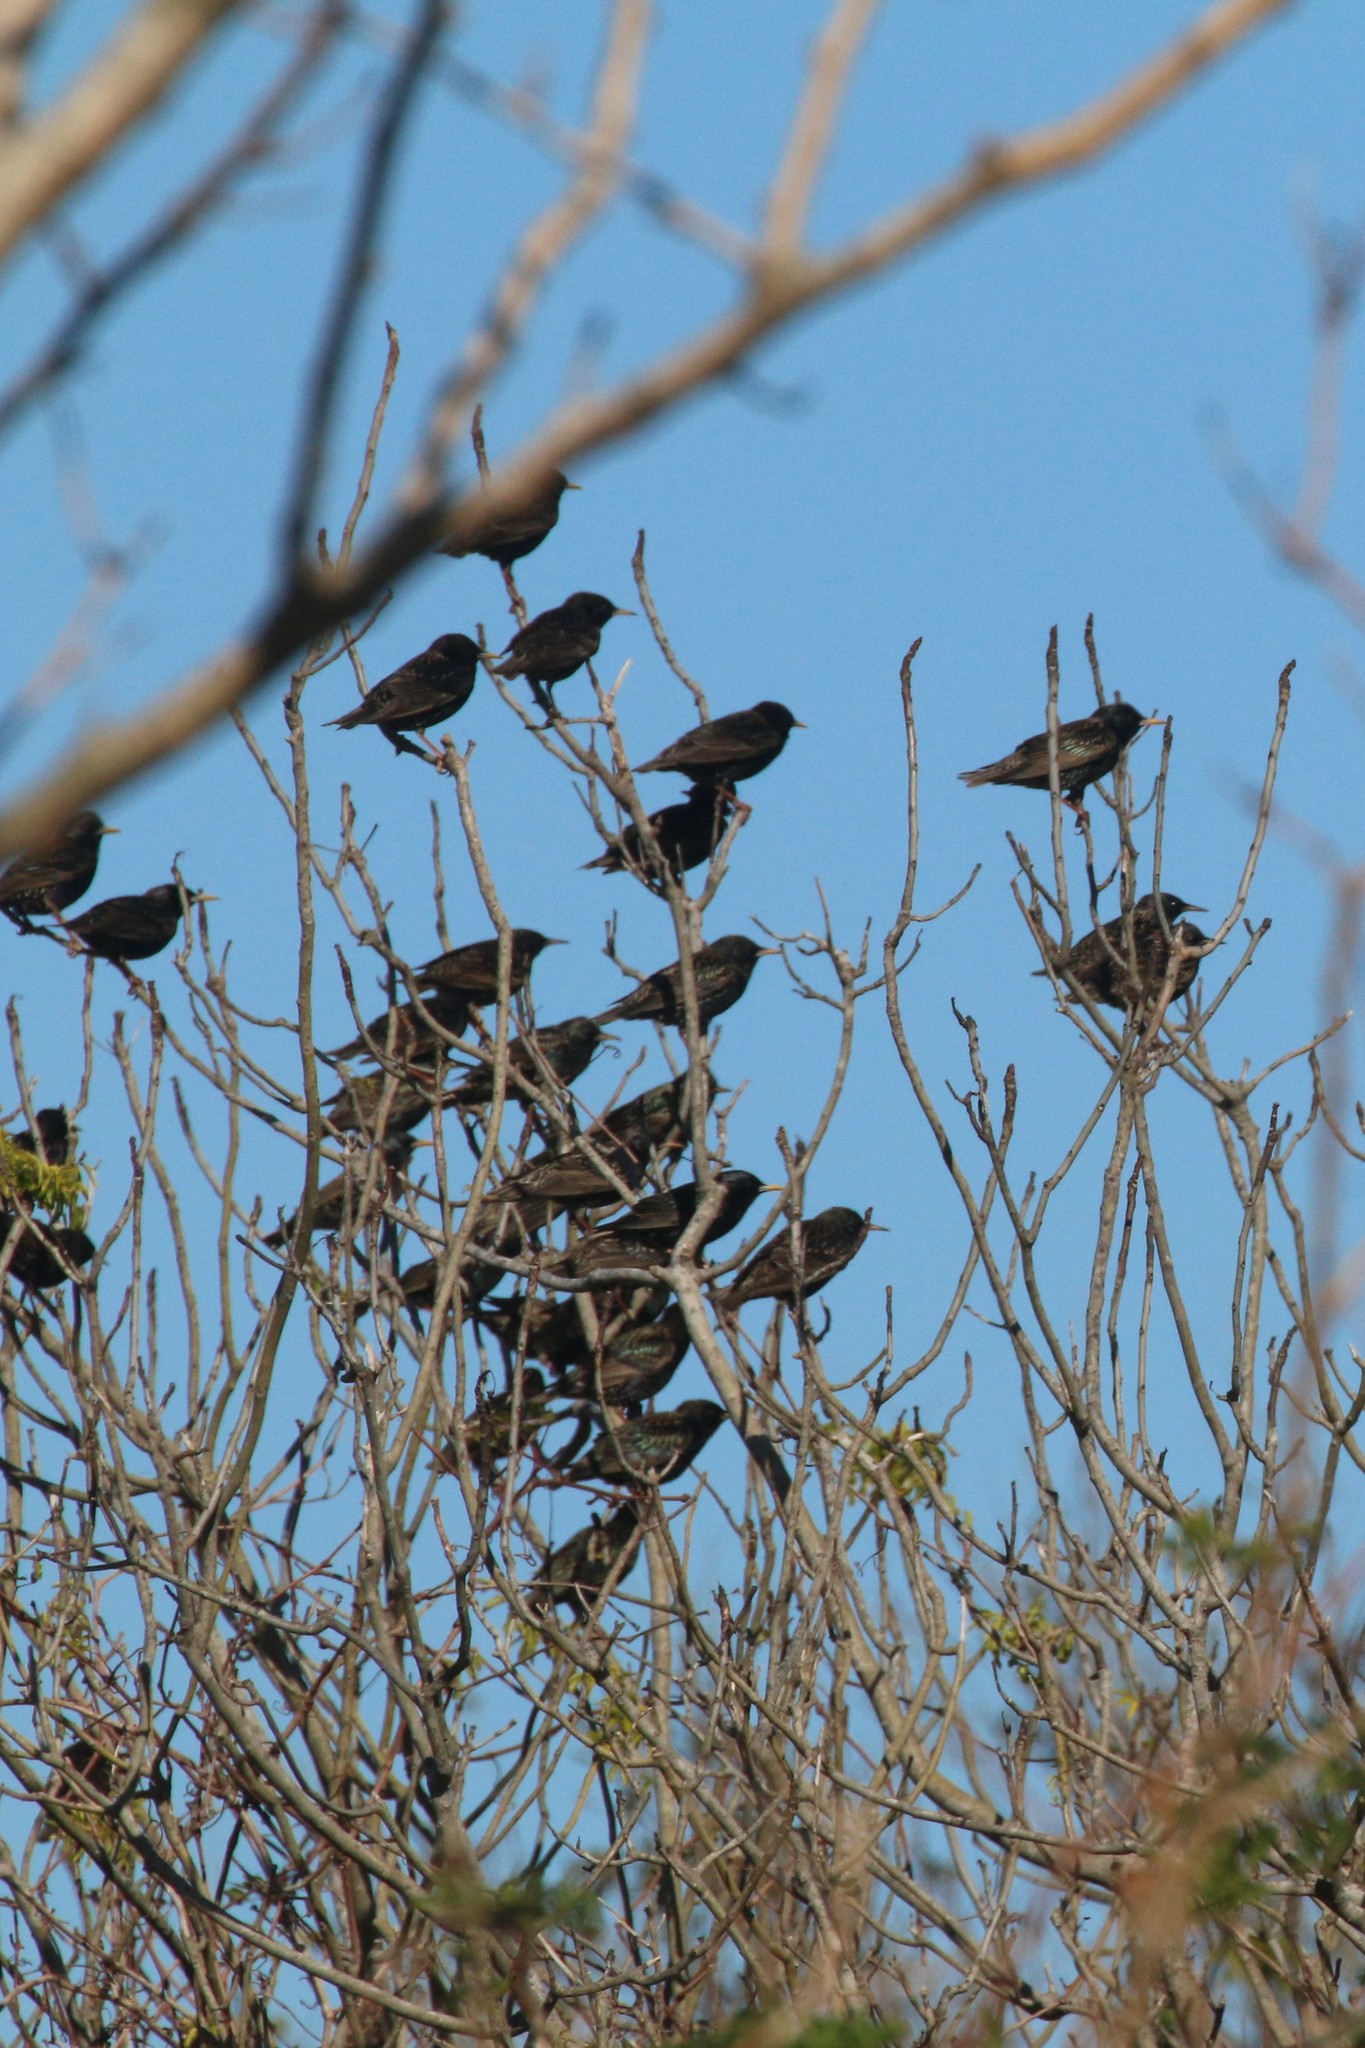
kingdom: Animalia
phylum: Chordata
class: Aves
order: Passeriformes
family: Sturnidae
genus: Sturnus
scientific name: Sturnus vulgaris
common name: Common starling
